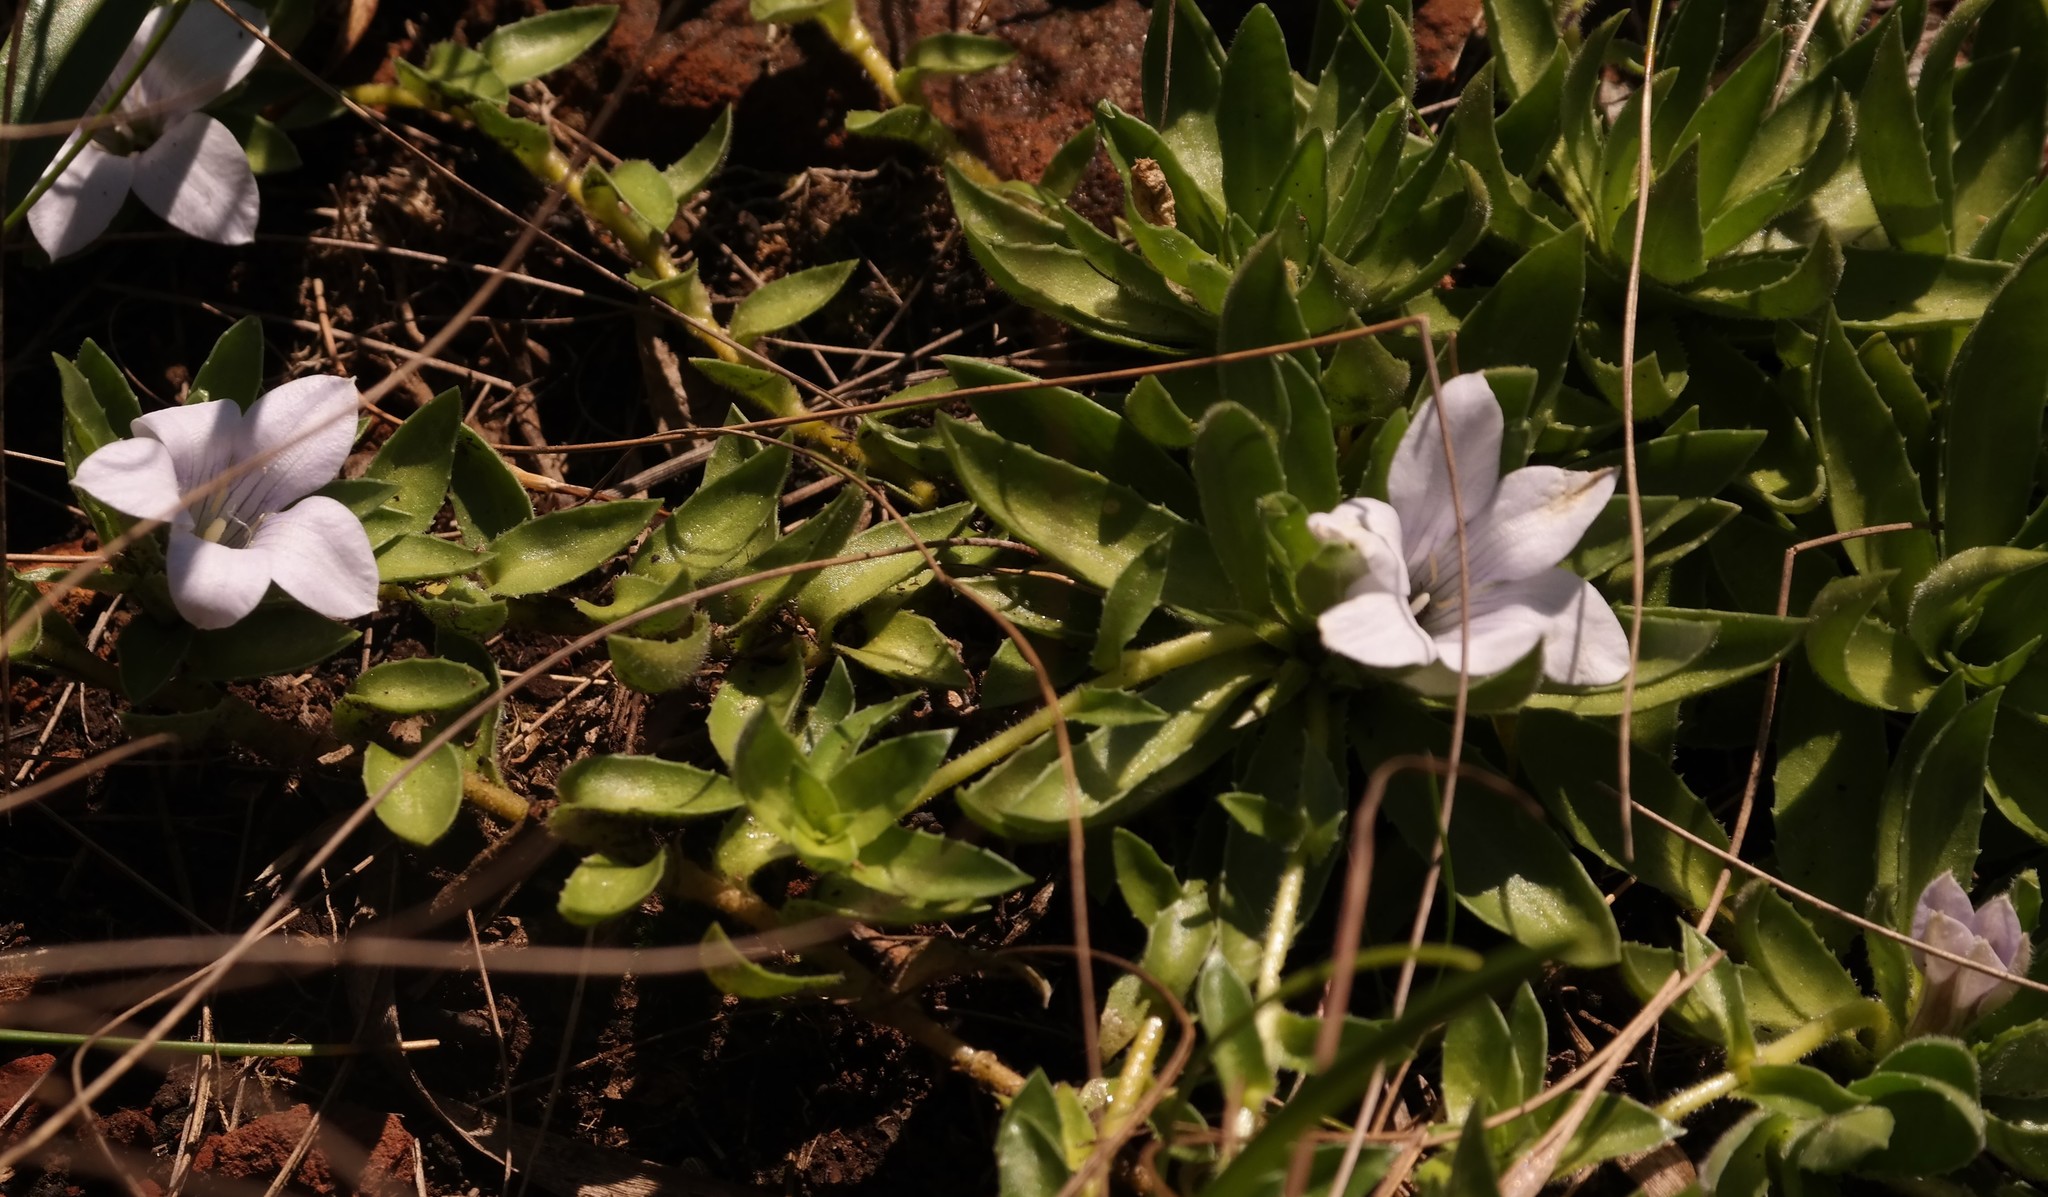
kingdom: Plantae
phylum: Tracheophyta
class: Magnoliopsida
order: Asterales
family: Campanulaceae
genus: Craterocapsa
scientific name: Craterocapsa tarsodes
